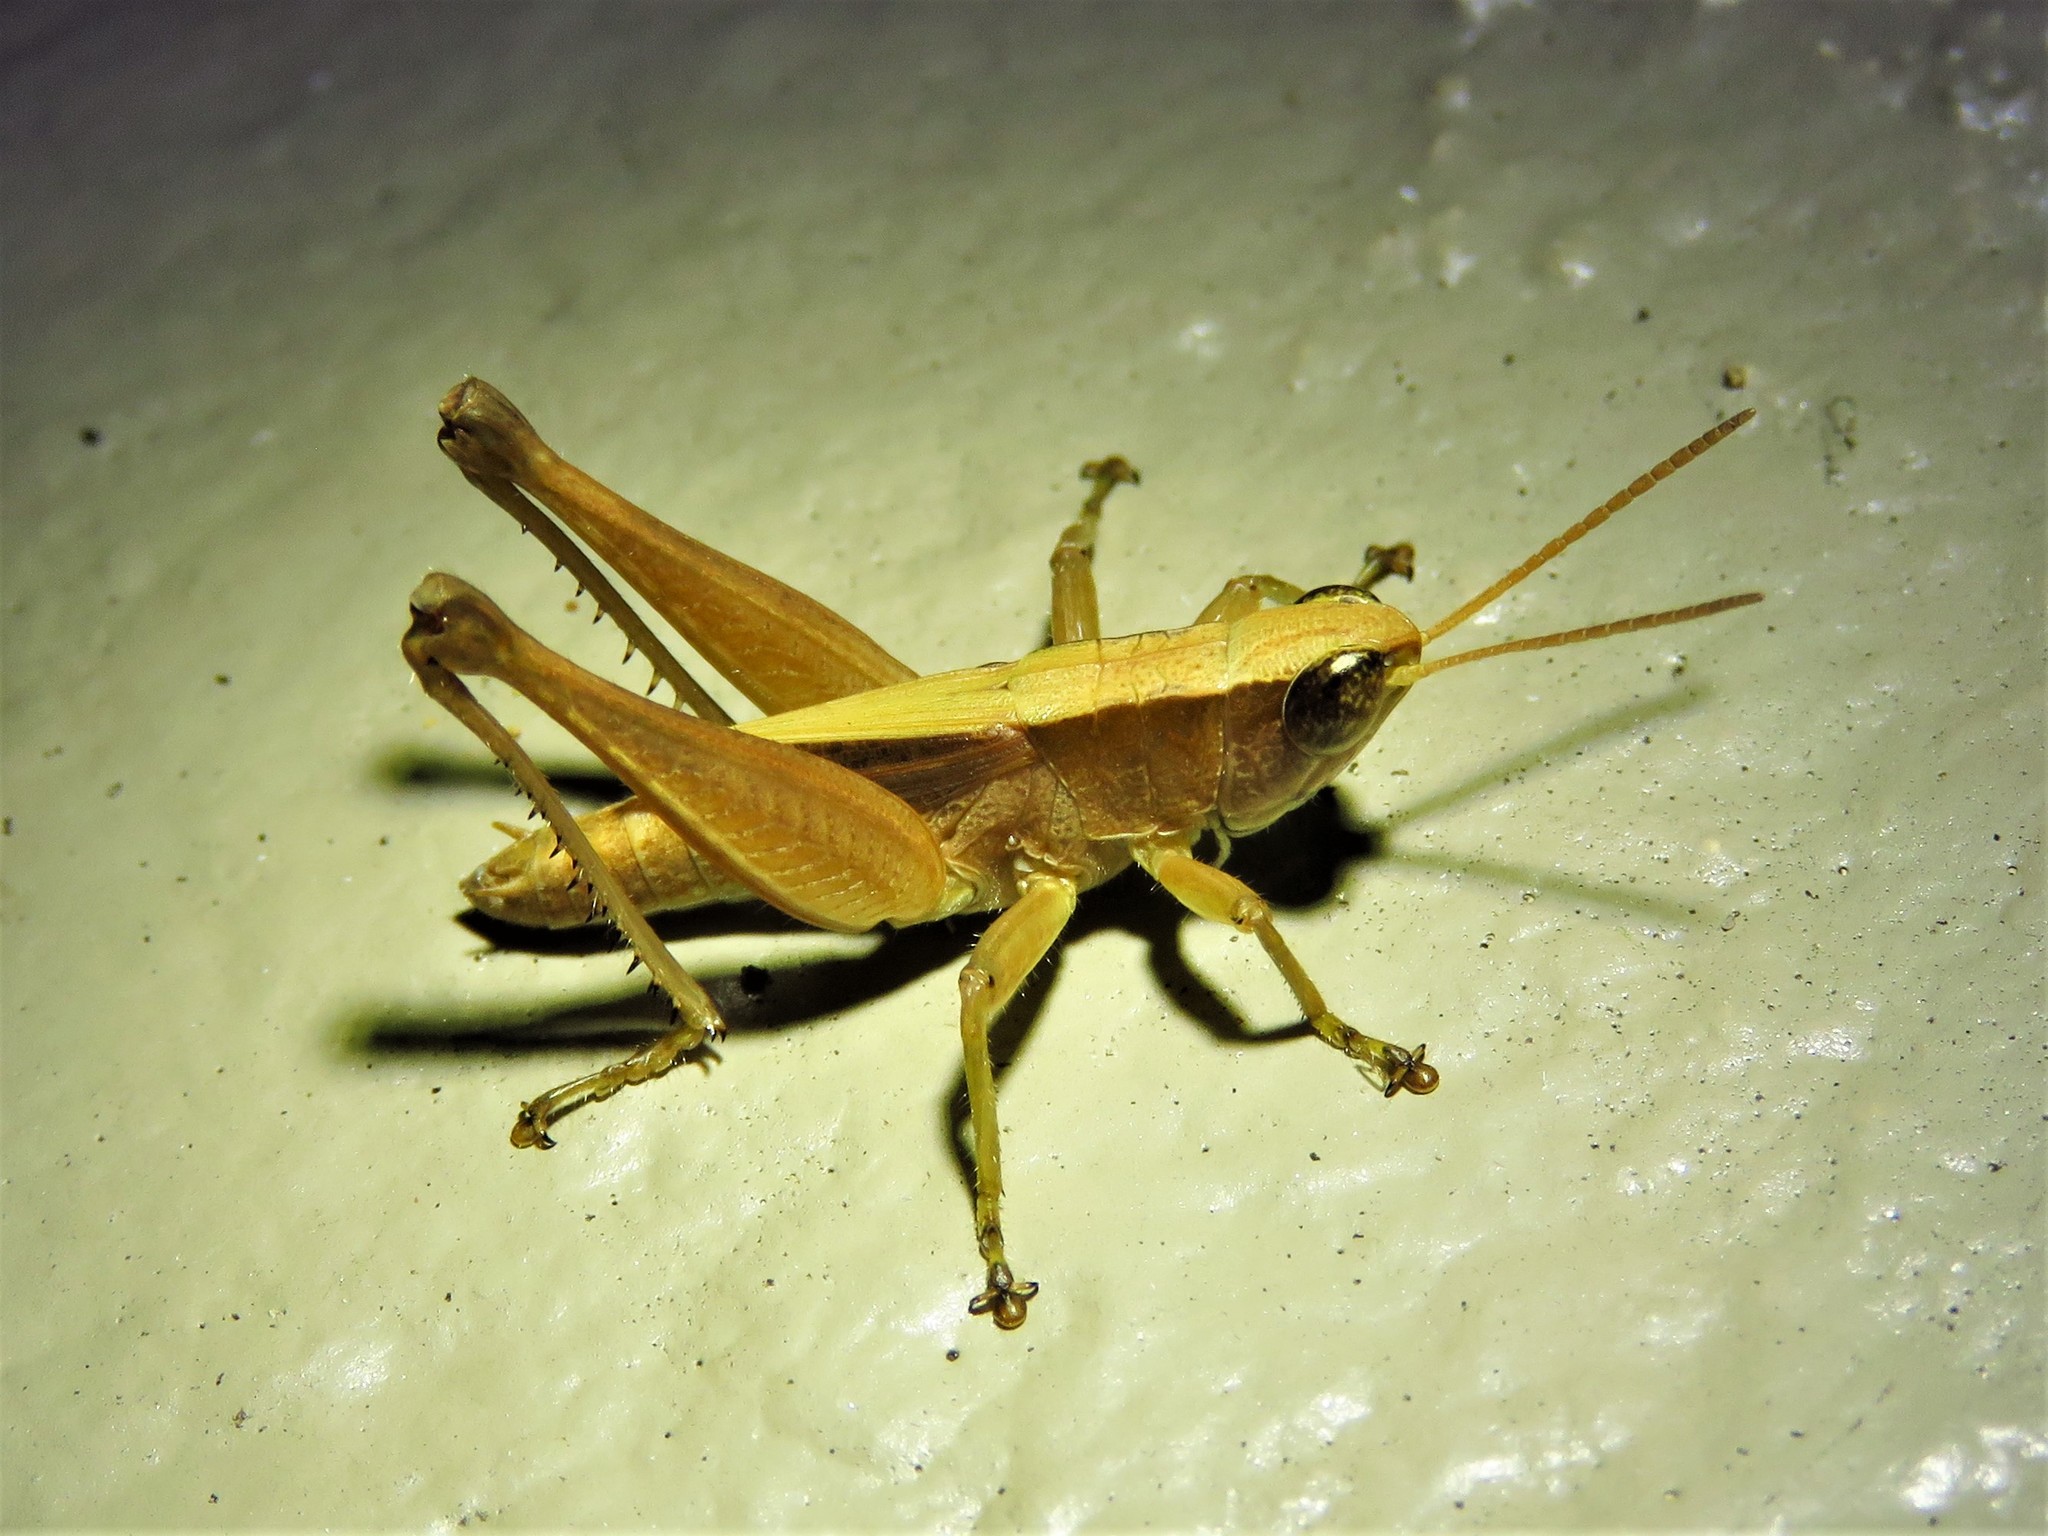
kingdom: Animalia
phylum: Arthropoda
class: Insecta
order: Orthoptera
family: Acrididae
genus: Dichromorpha
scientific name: Dichromorpha viridis
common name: Short-winged green grasshopper
